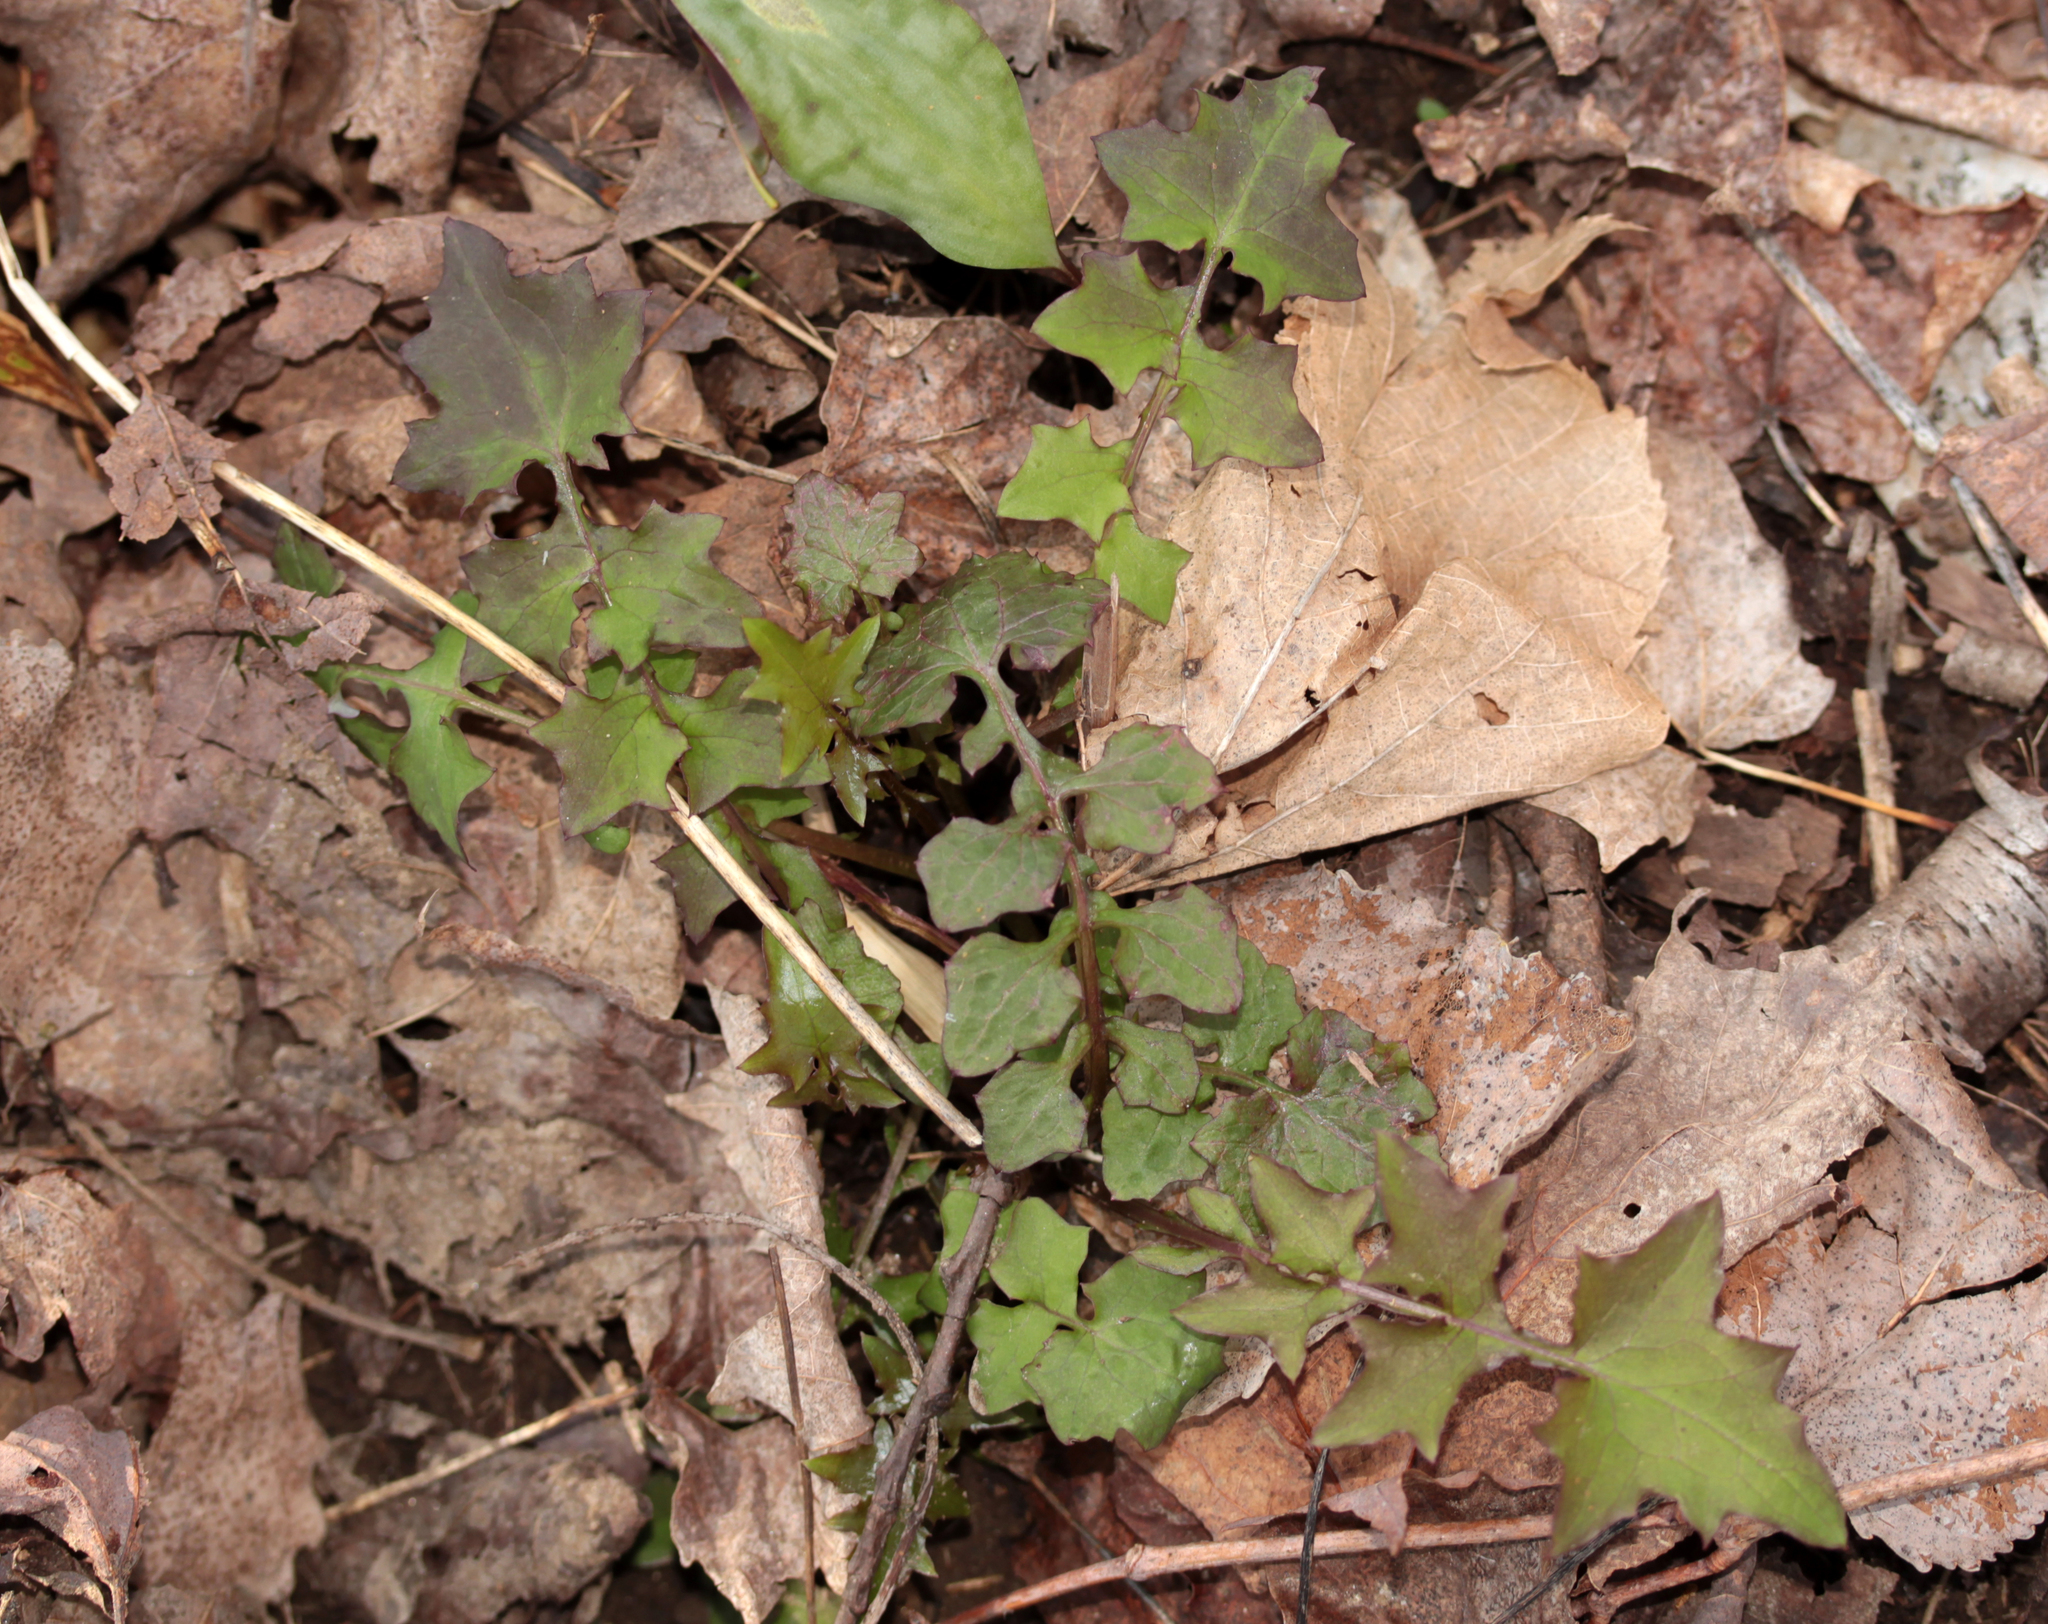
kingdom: Plantae
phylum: Tracheophyta
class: Magnoliopsida
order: Asterales
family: Asteraceae
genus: Mycelis
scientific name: Mycelis muralis
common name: Wall lettuce
